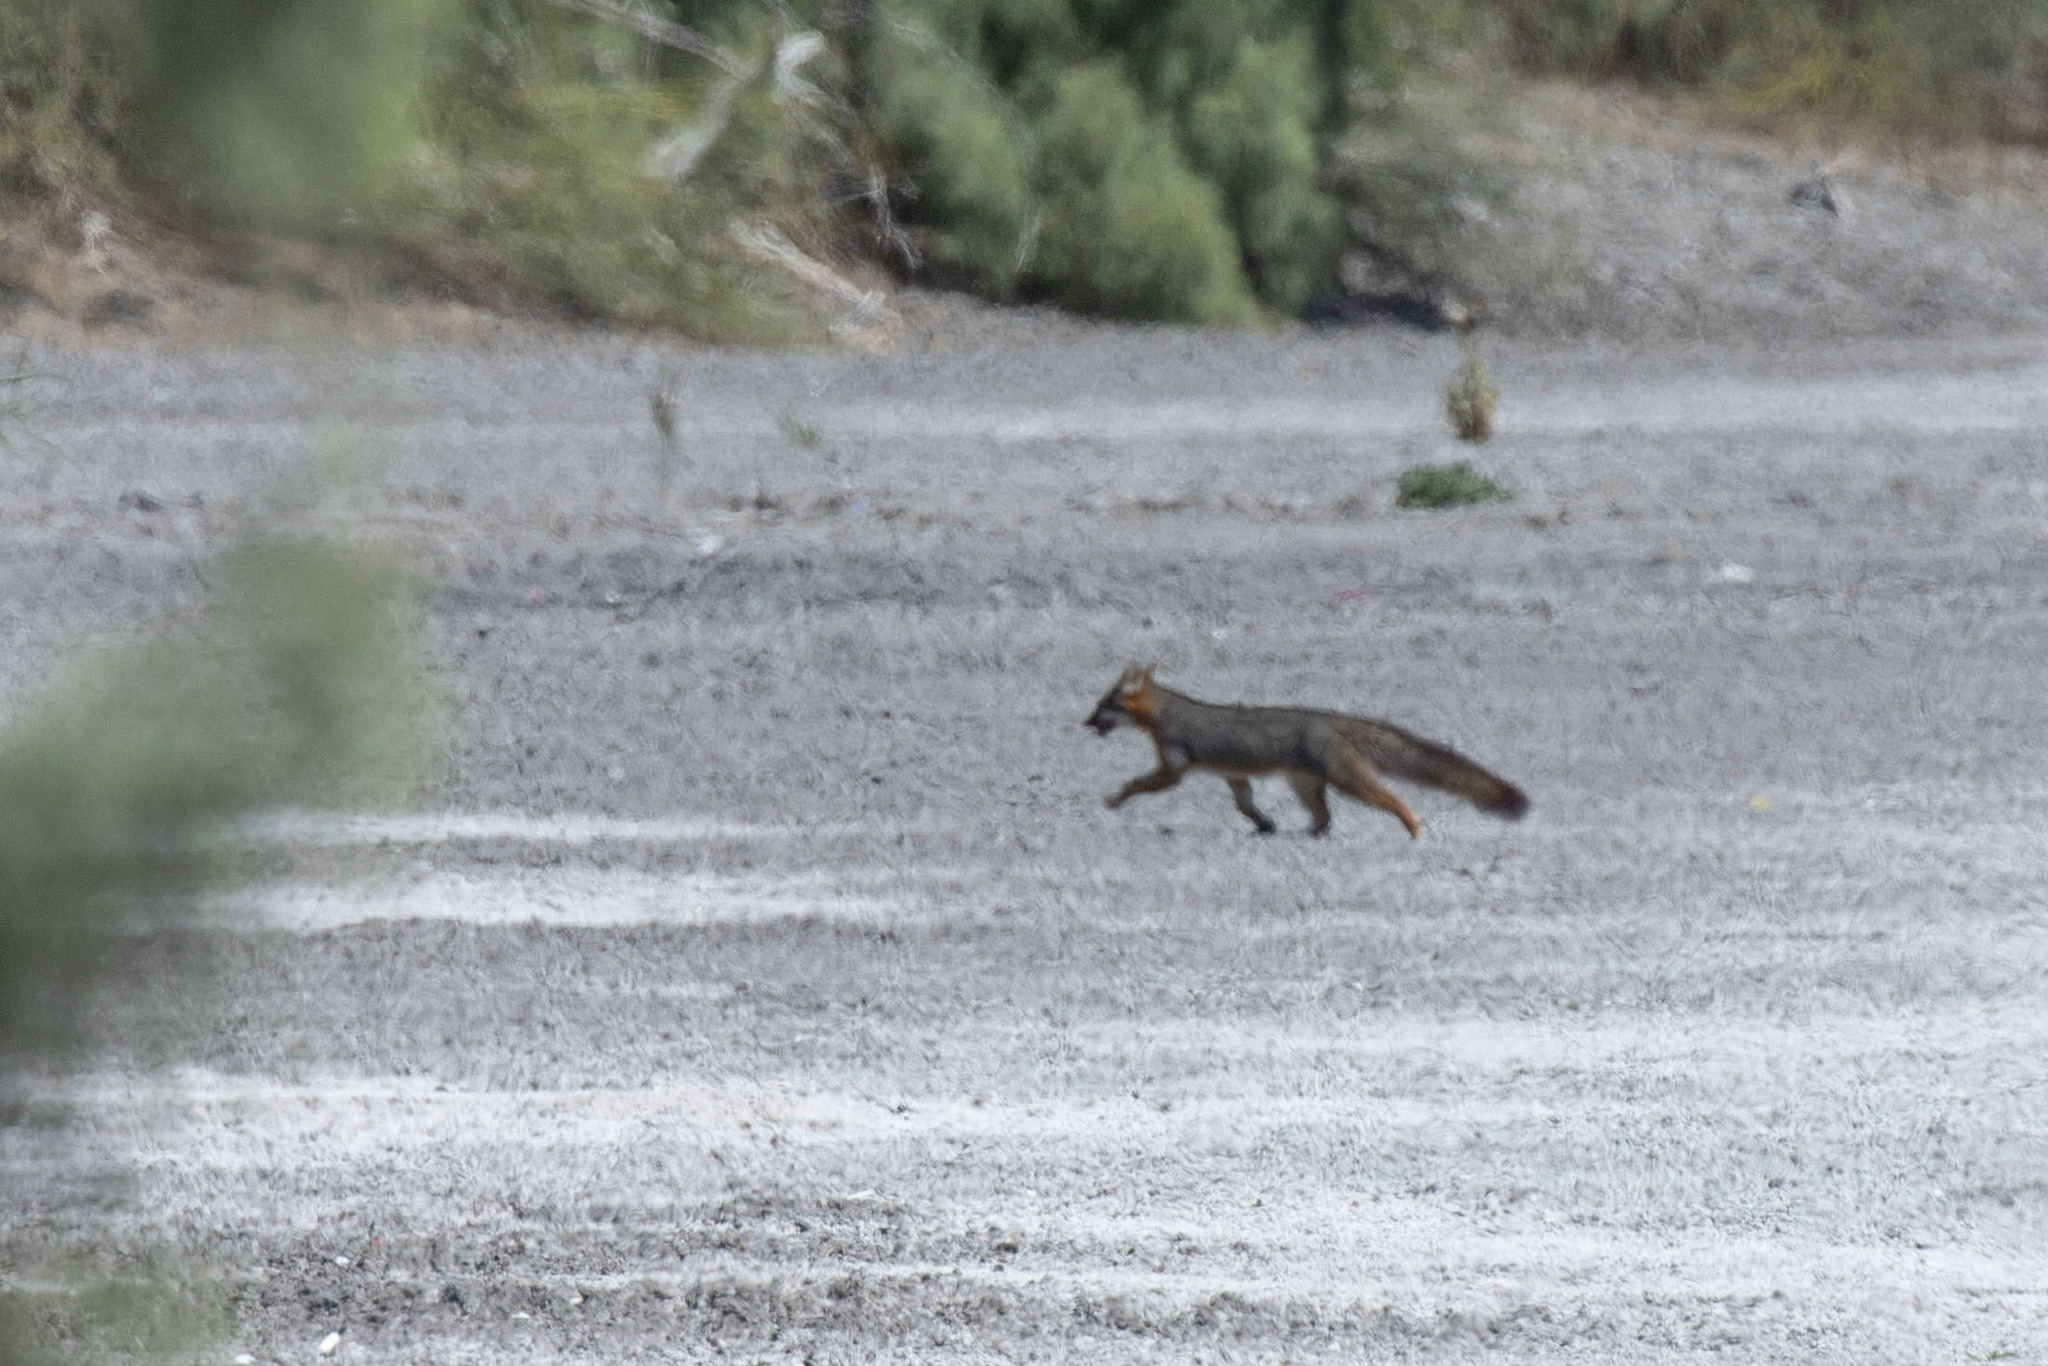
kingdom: Animalia
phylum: Chordata
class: Mammalia
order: Carnivora
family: Canidae
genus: Urocyon
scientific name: Urocyon cinereoargenteus
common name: Gray fox
